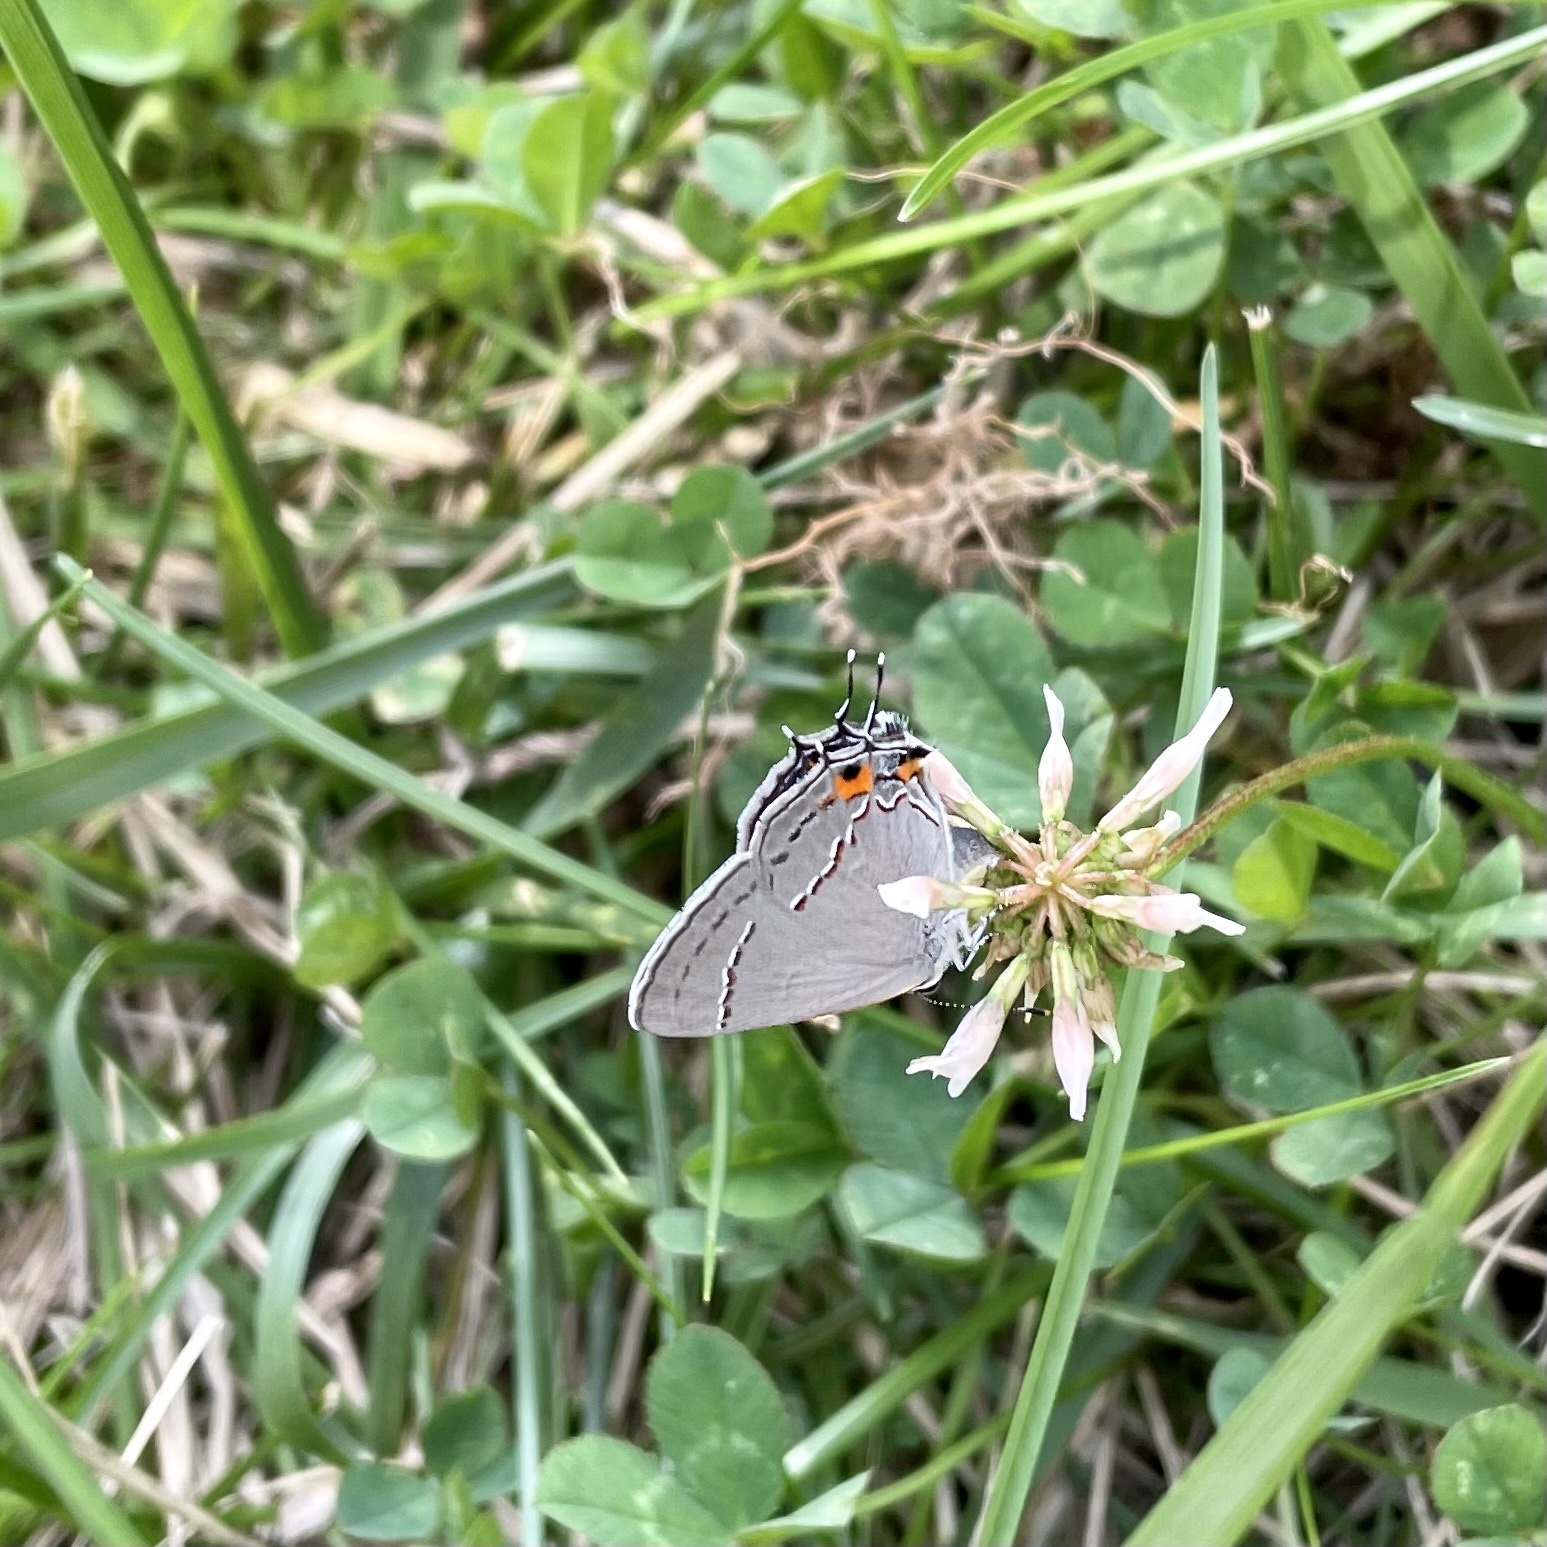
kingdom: Animalia
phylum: Arthropoda
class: Insecta
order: Lepidoptera
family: Lycaenidae
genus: Strymon
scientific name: Strymon melinus
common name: Gray hairstreak
